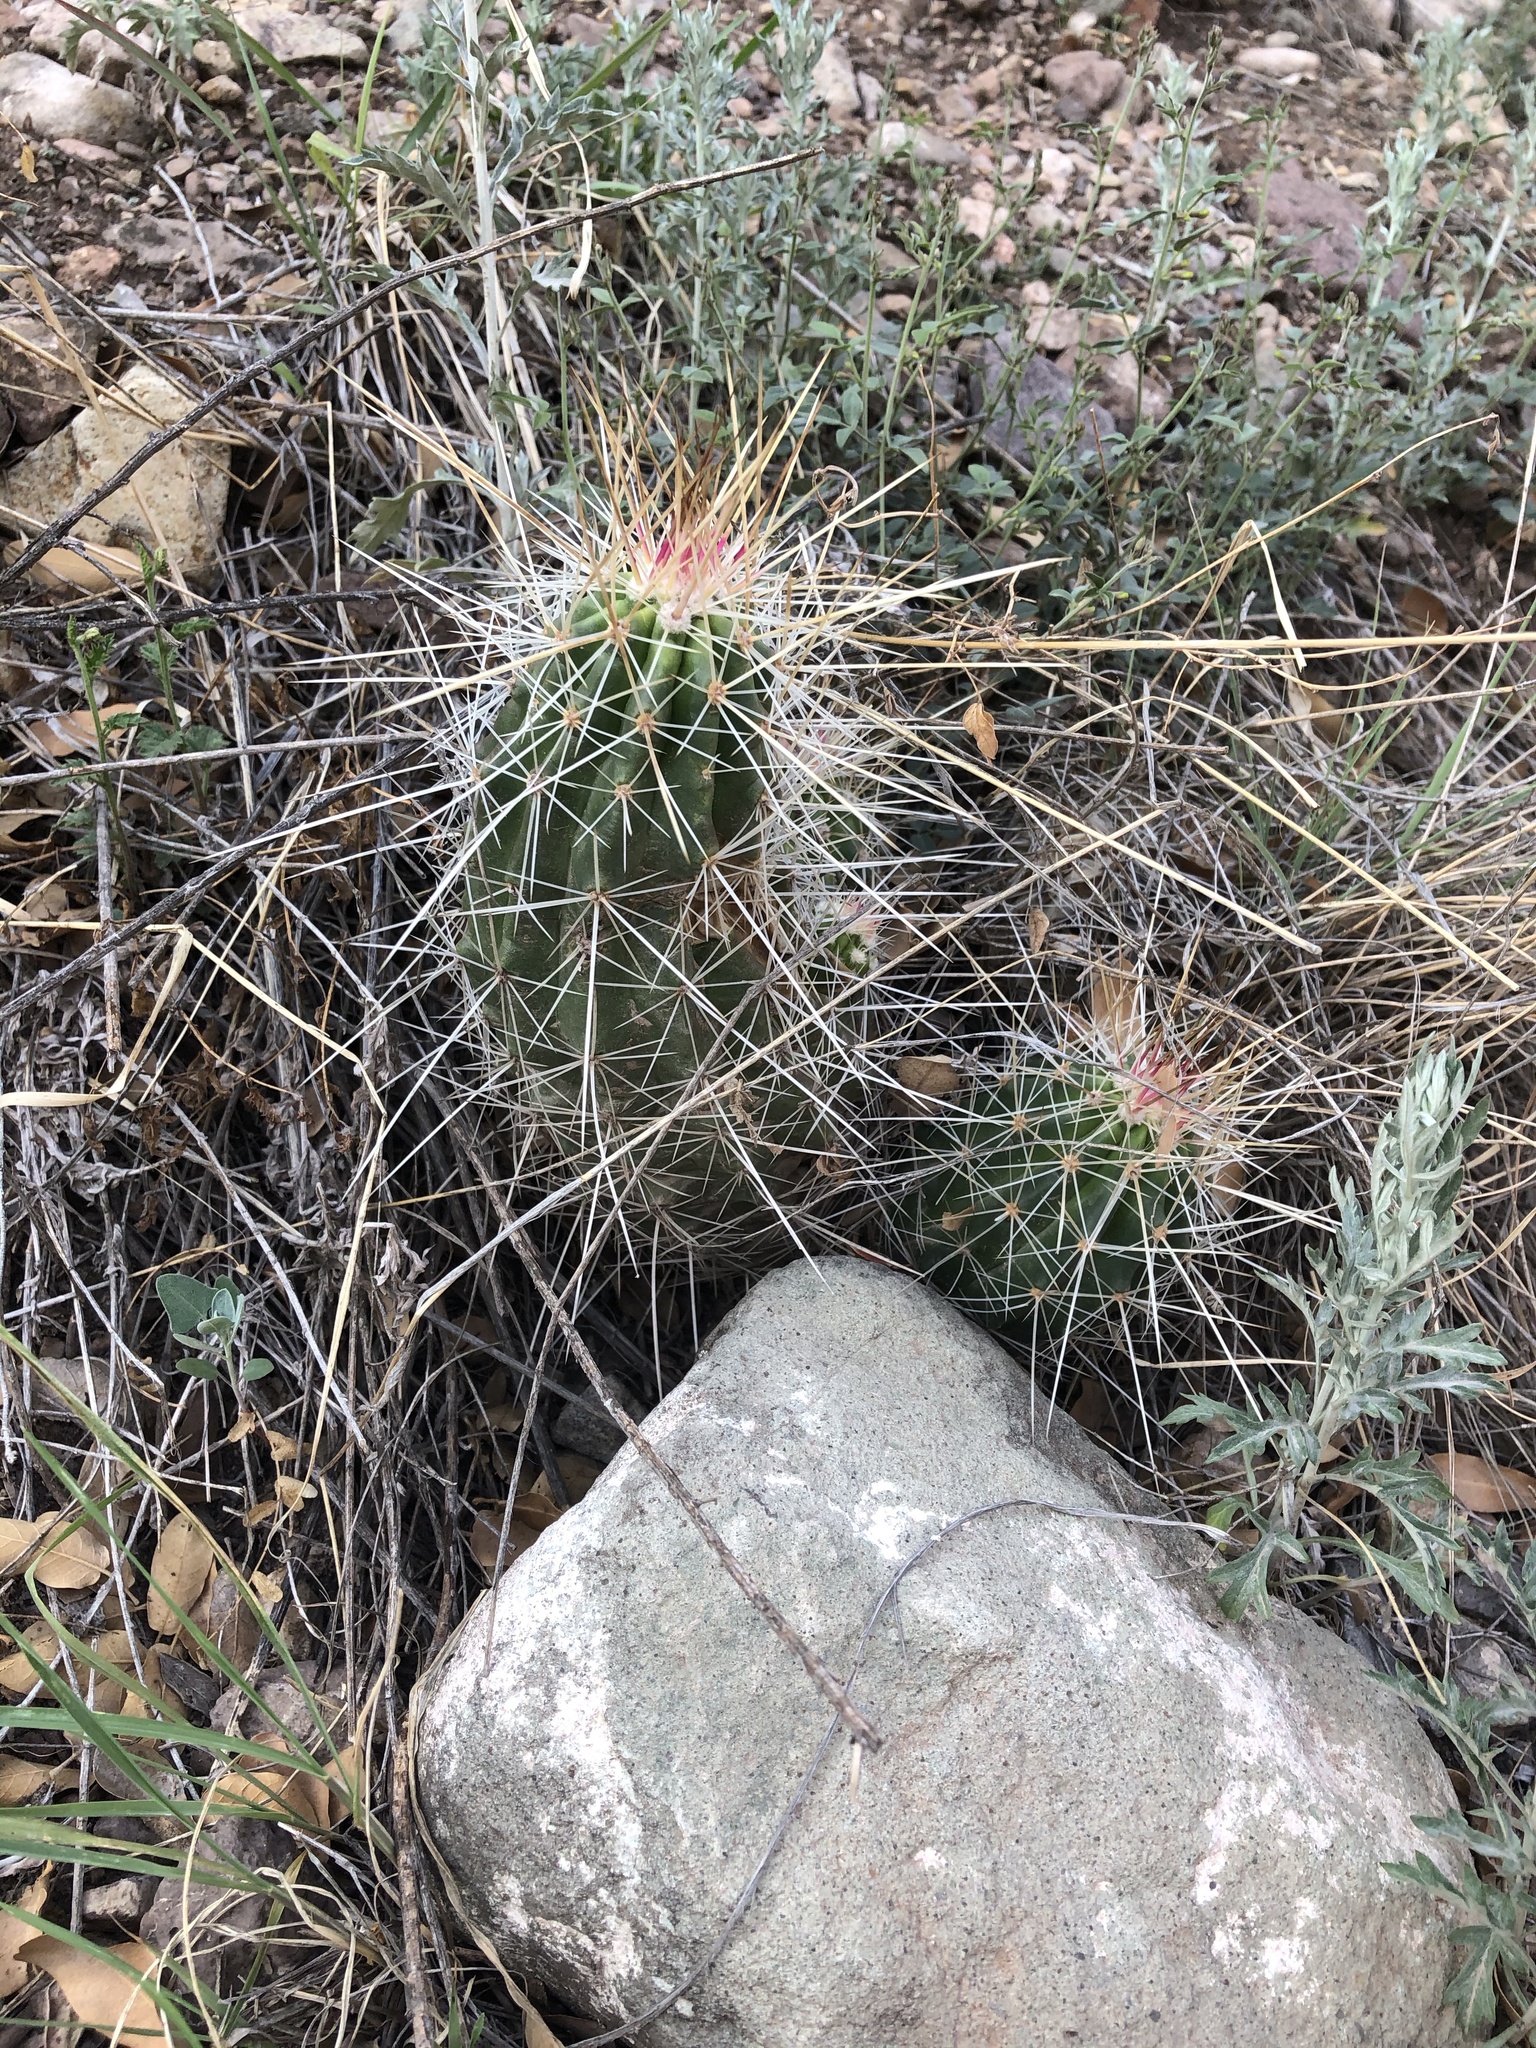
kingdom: Plantae
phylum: Tracheophyta
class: Magnoliopsida
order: Caryophyllales
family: Cactaceae
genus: Echinocereus
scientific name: Echinocereus stramineus
